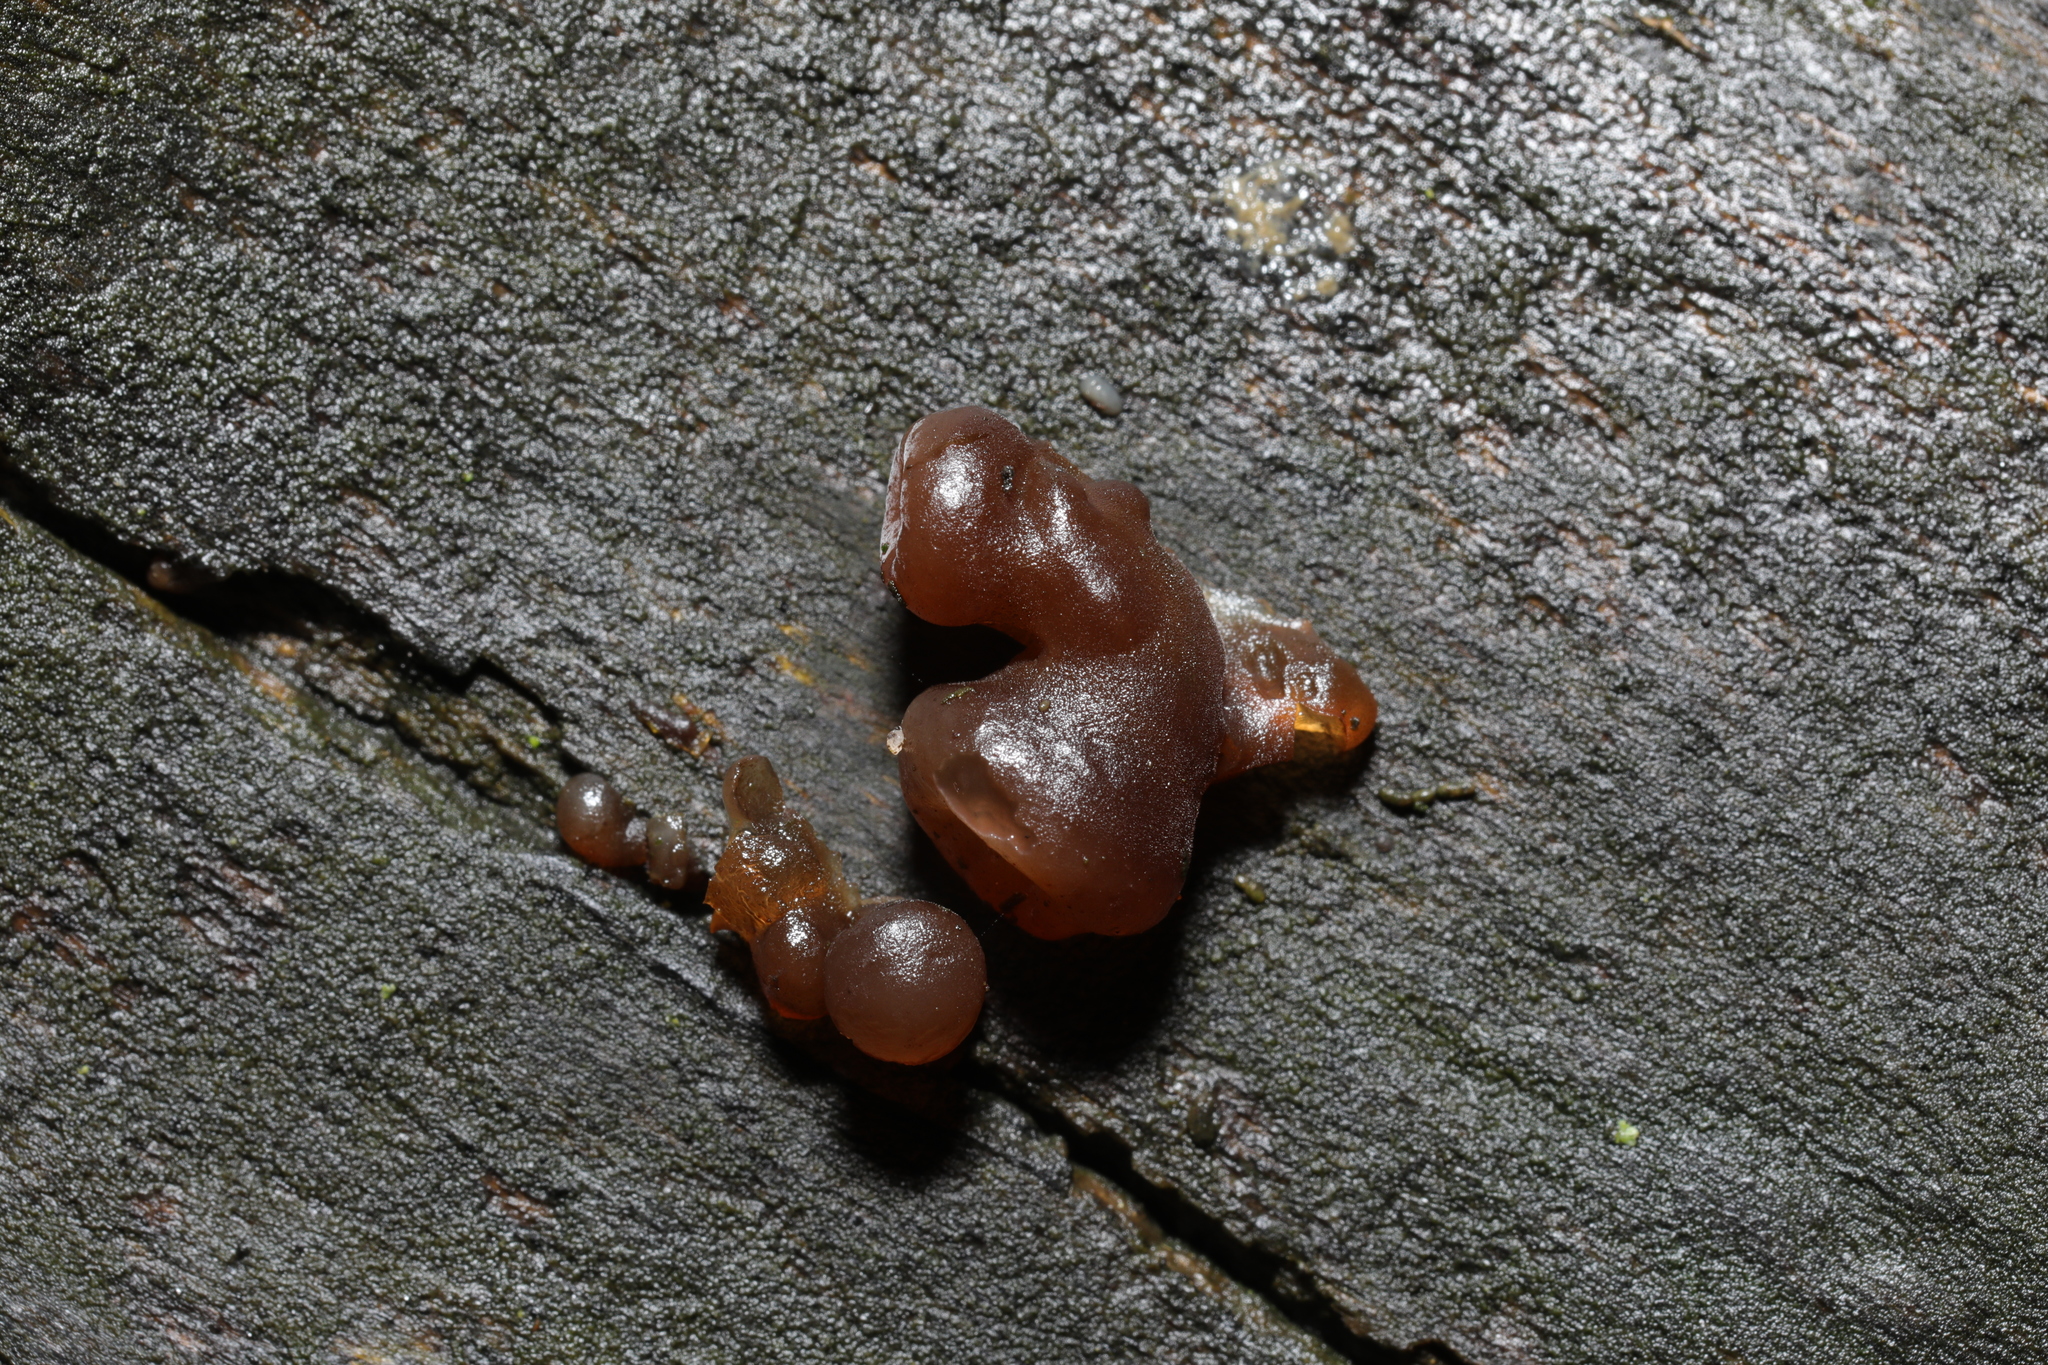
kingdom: Fungi
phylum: Basidiomycota
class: Agaricomycetes
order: Auriculariales
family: Auriculariaceae
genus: Auricularia
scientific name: Auricularia auricula-judae
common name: Jelly ear
